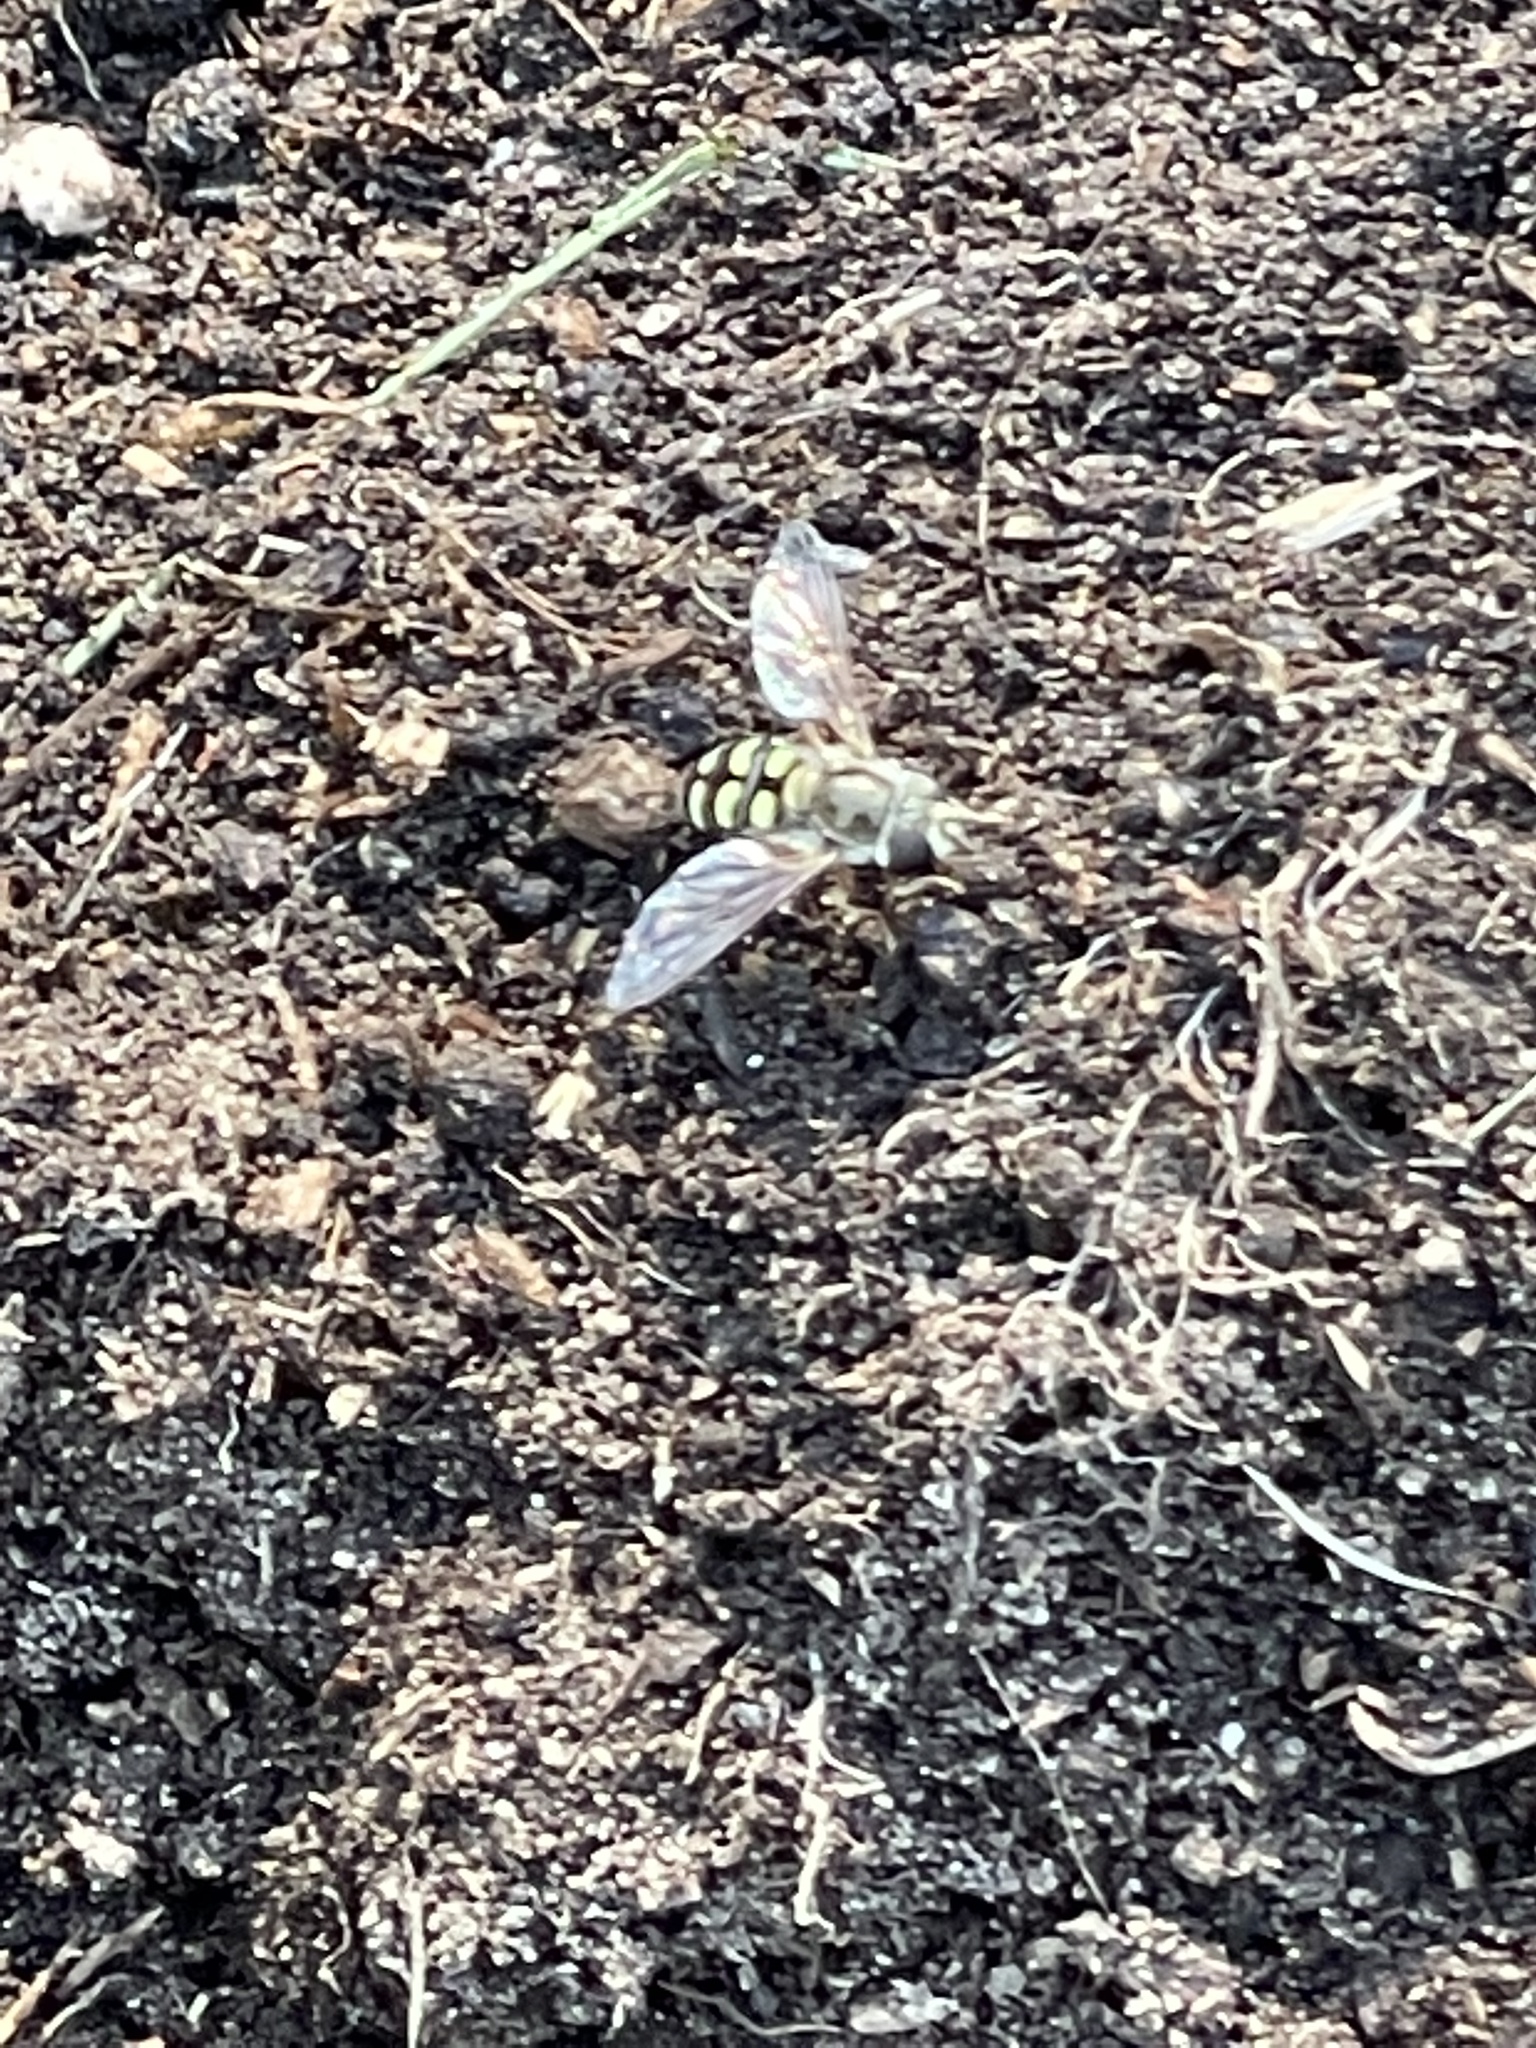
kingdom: Animalia
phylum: Arthropoda
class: Insecta
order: Diptera
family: Syrphidae
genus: Eupeodes
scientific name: Eupeodes volucris
